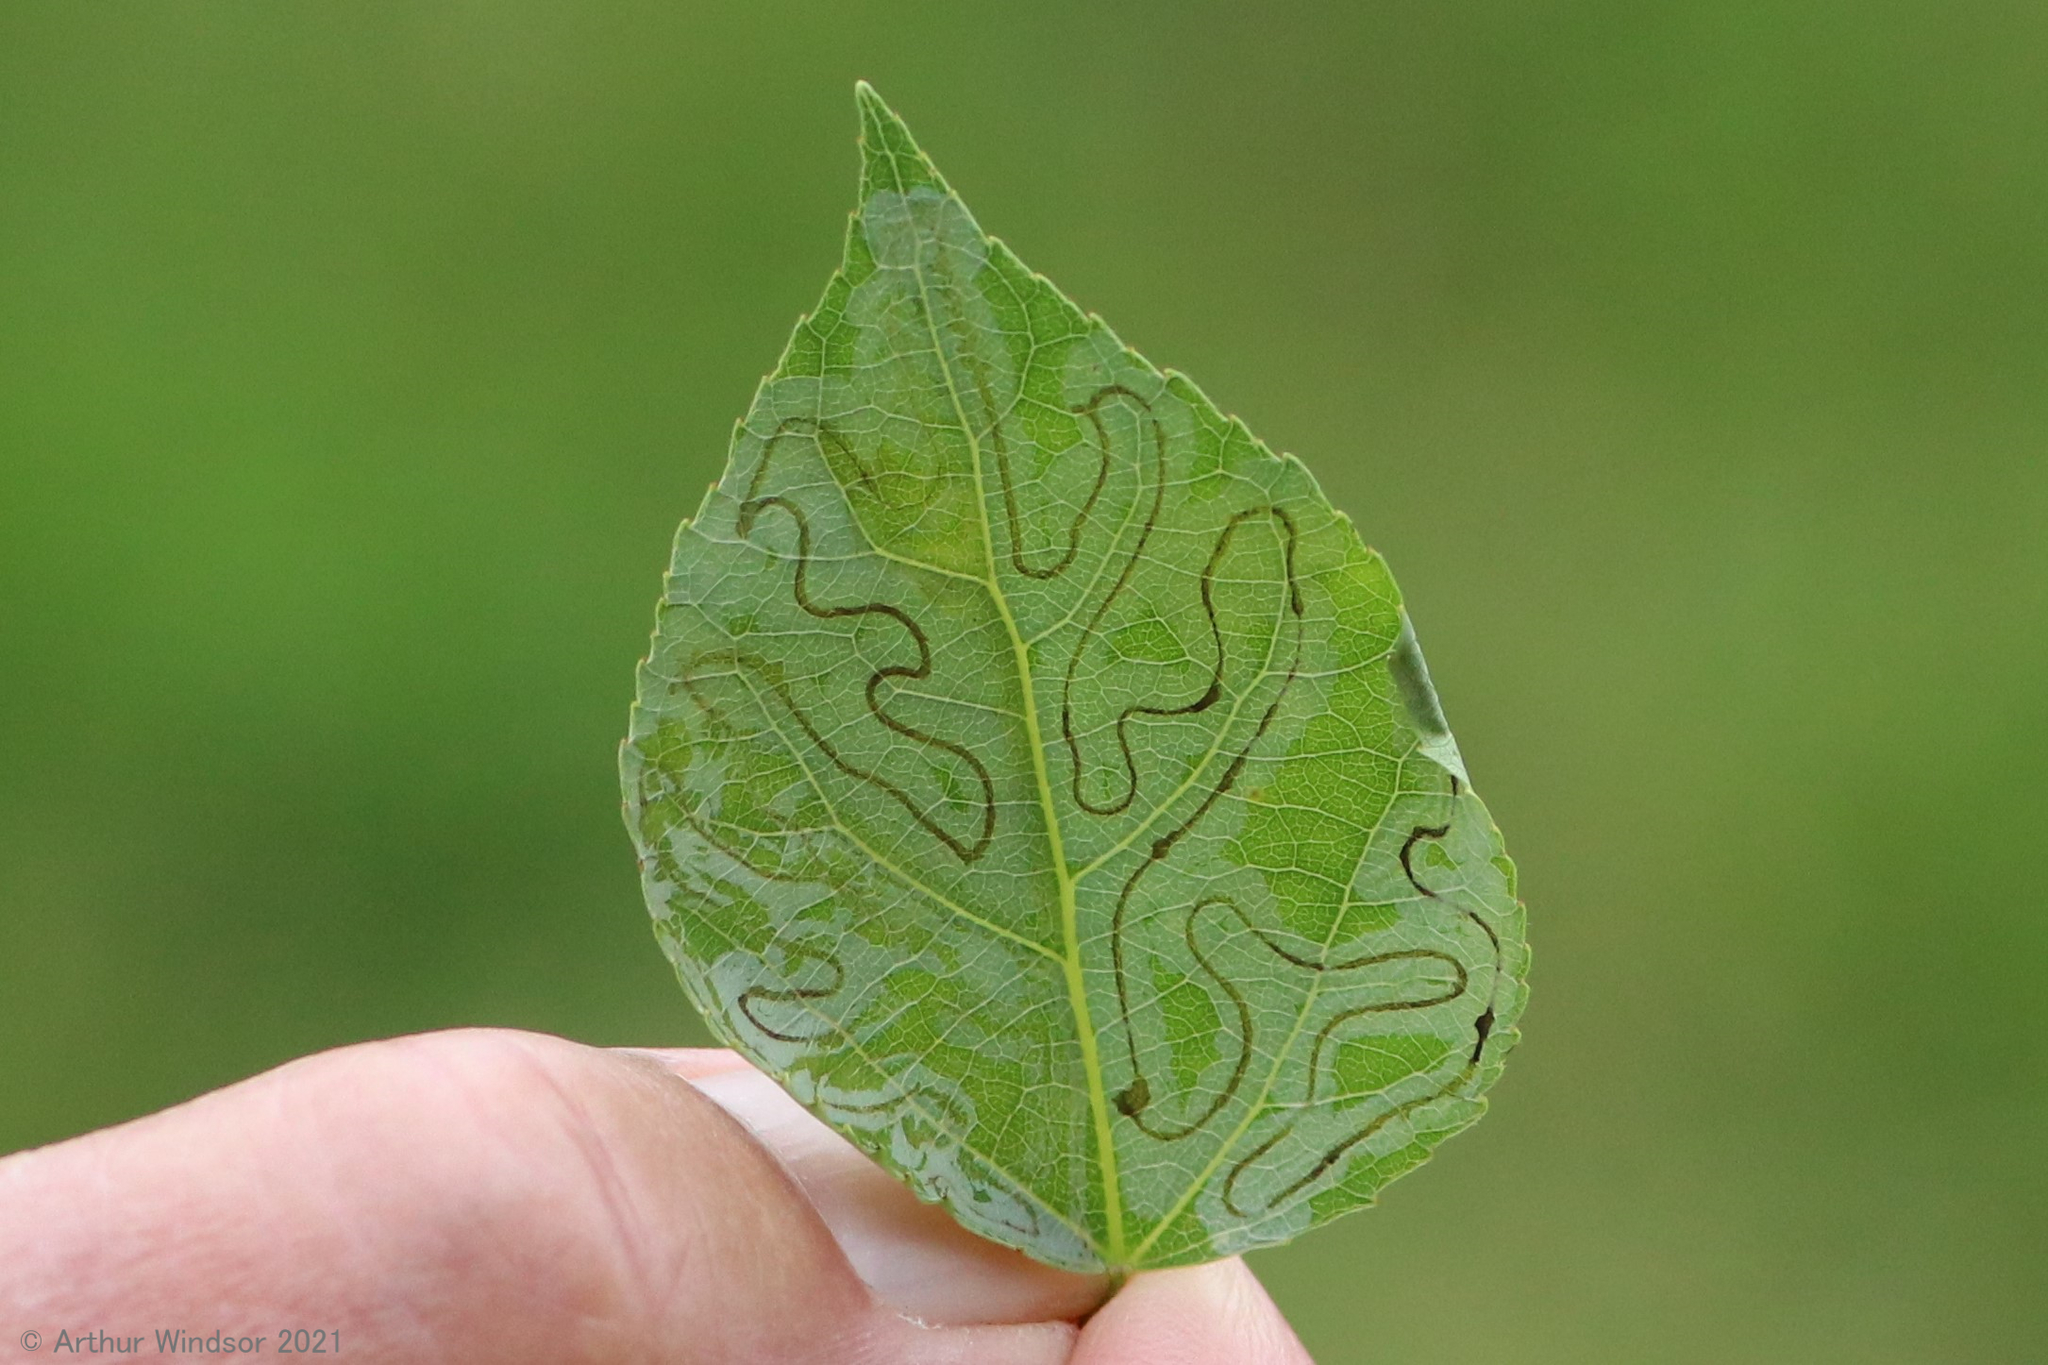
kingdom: Animalia
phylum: Arthropoda
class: Insecta
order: Lepidoptera
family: Gracillariidae
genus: Phyllocnistis
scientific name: Phyllocnistis populiella
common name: Aspen serpentine leafminer moth
